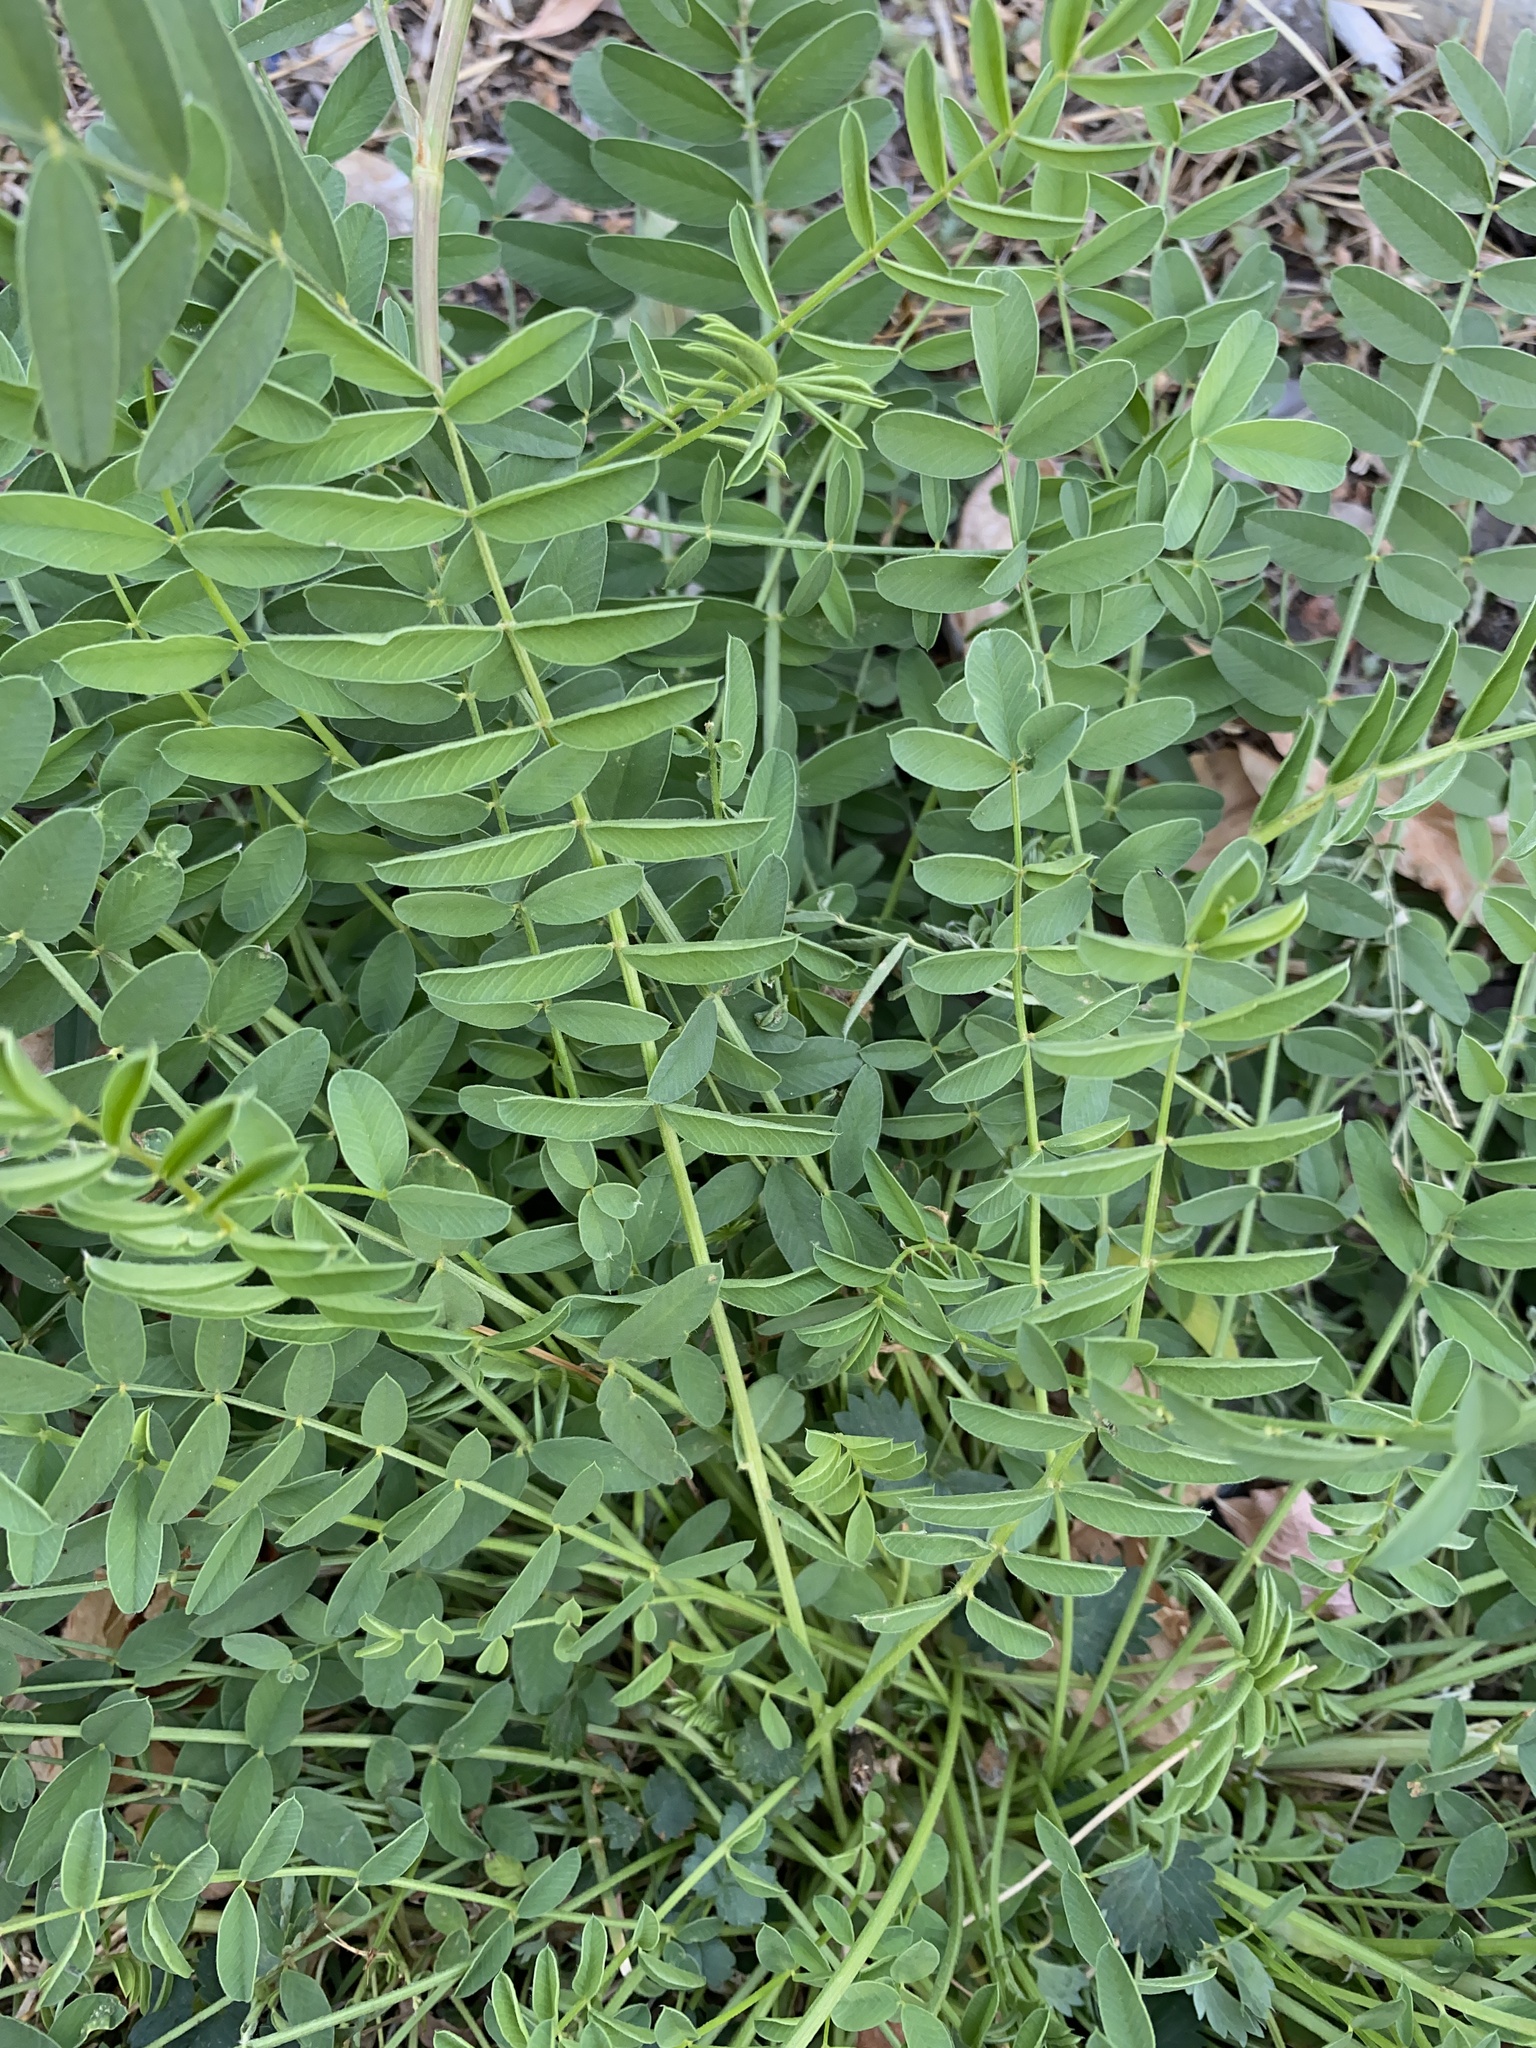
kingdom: Plantae
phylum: Tracheophyta
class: Magnoliopsida
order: Fabales
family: Fabaceae
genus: Onobrychis
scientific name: Onobrychis viciifolia
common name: Sainfoin
